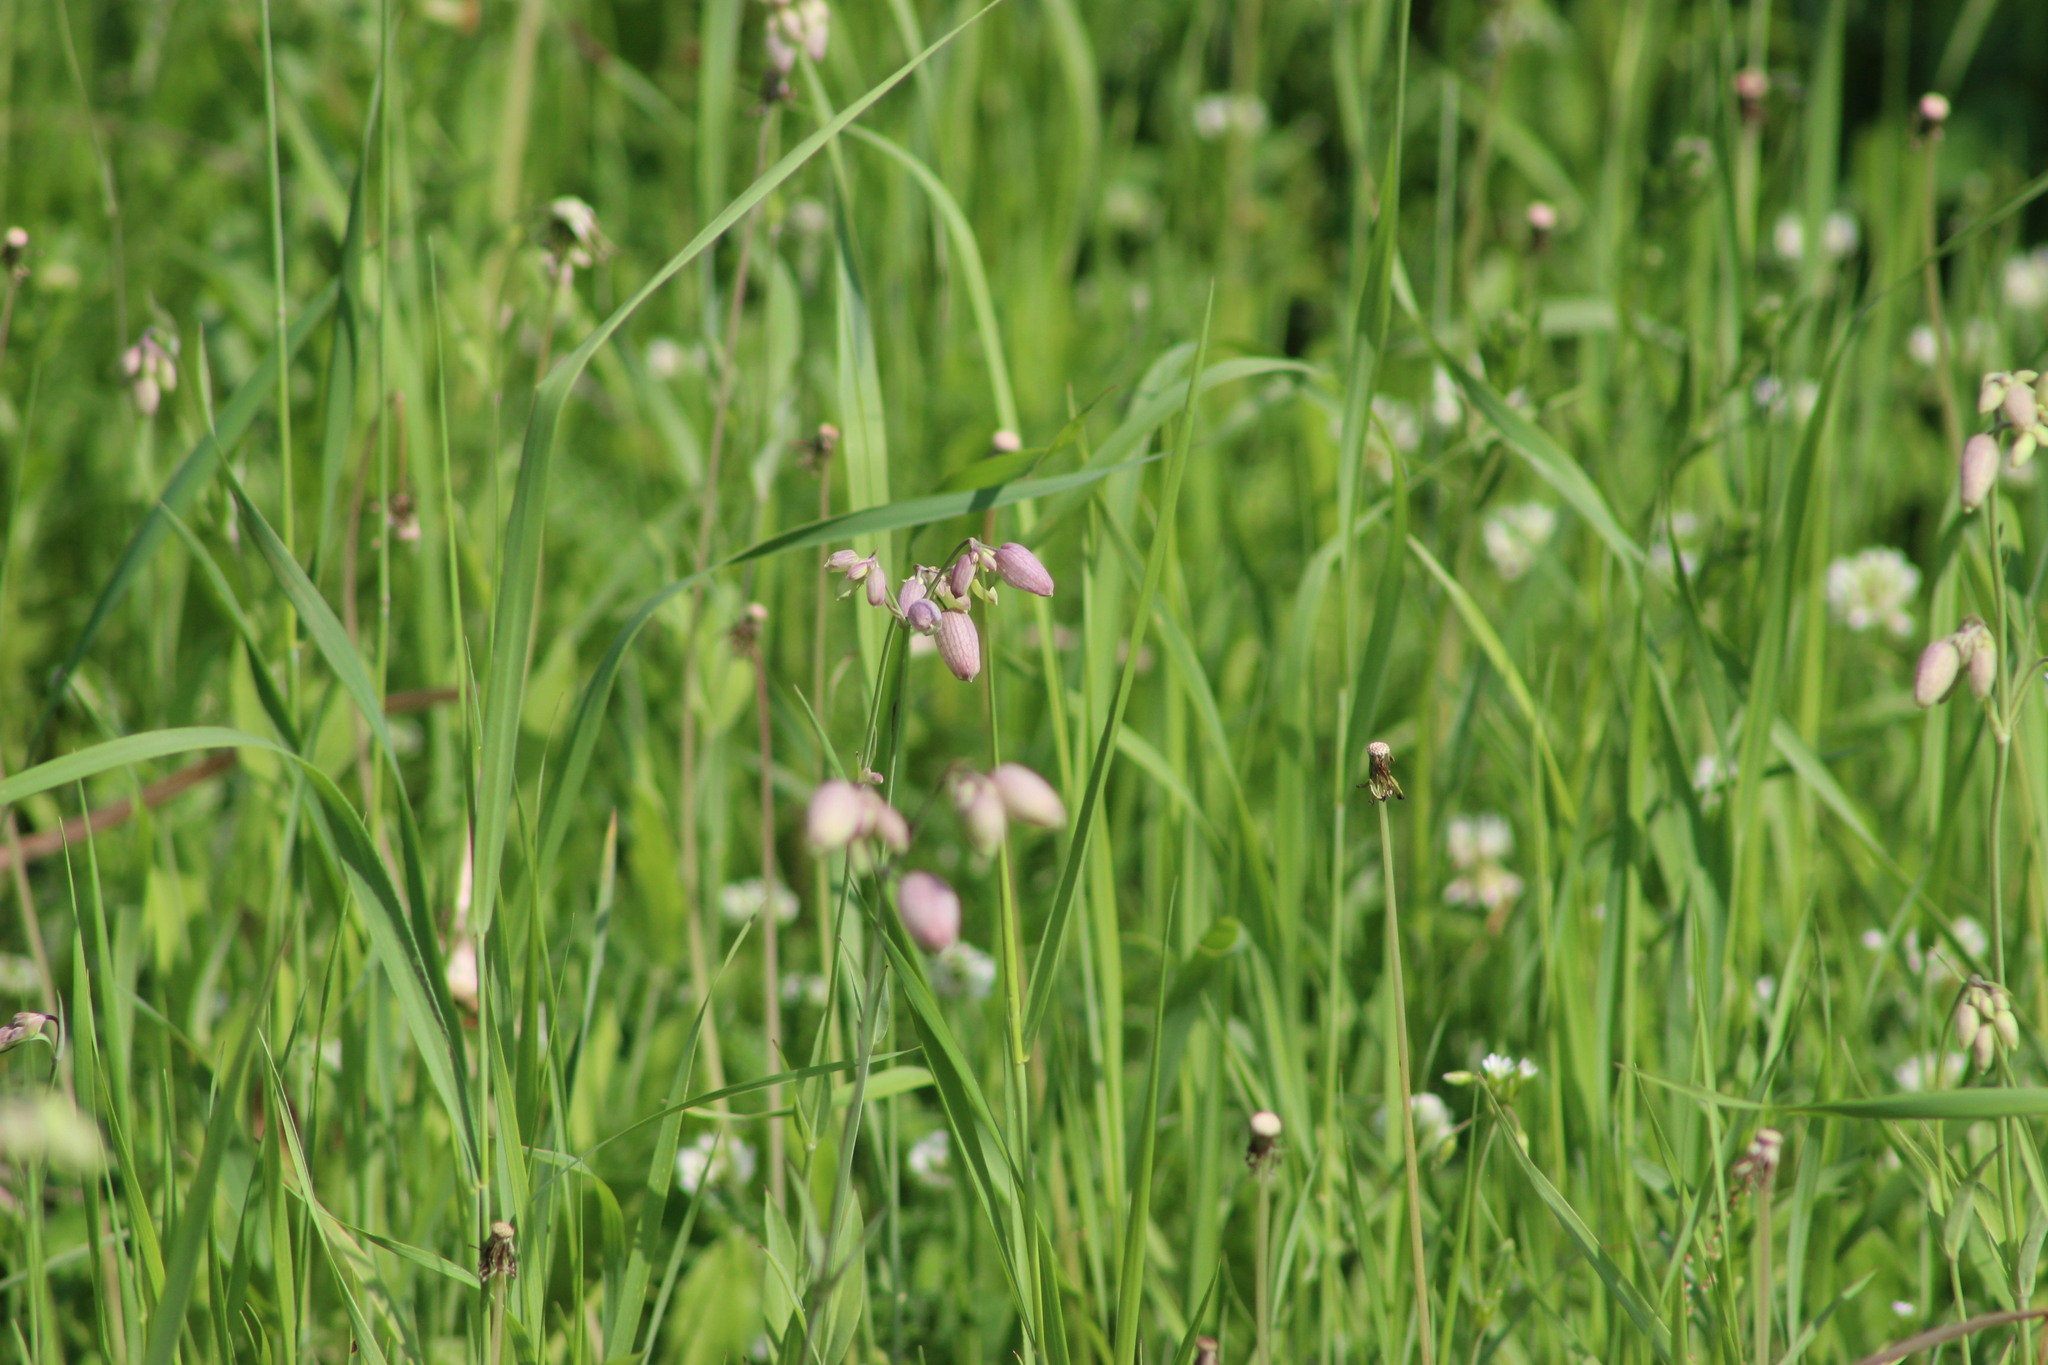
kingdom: Plantae
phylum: Tracheophyta
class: Magnoliopsida
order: Caryophyllales
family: Caryophyllaceae
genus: Silene
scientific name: Silene vulgaris
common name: Bladder campion
